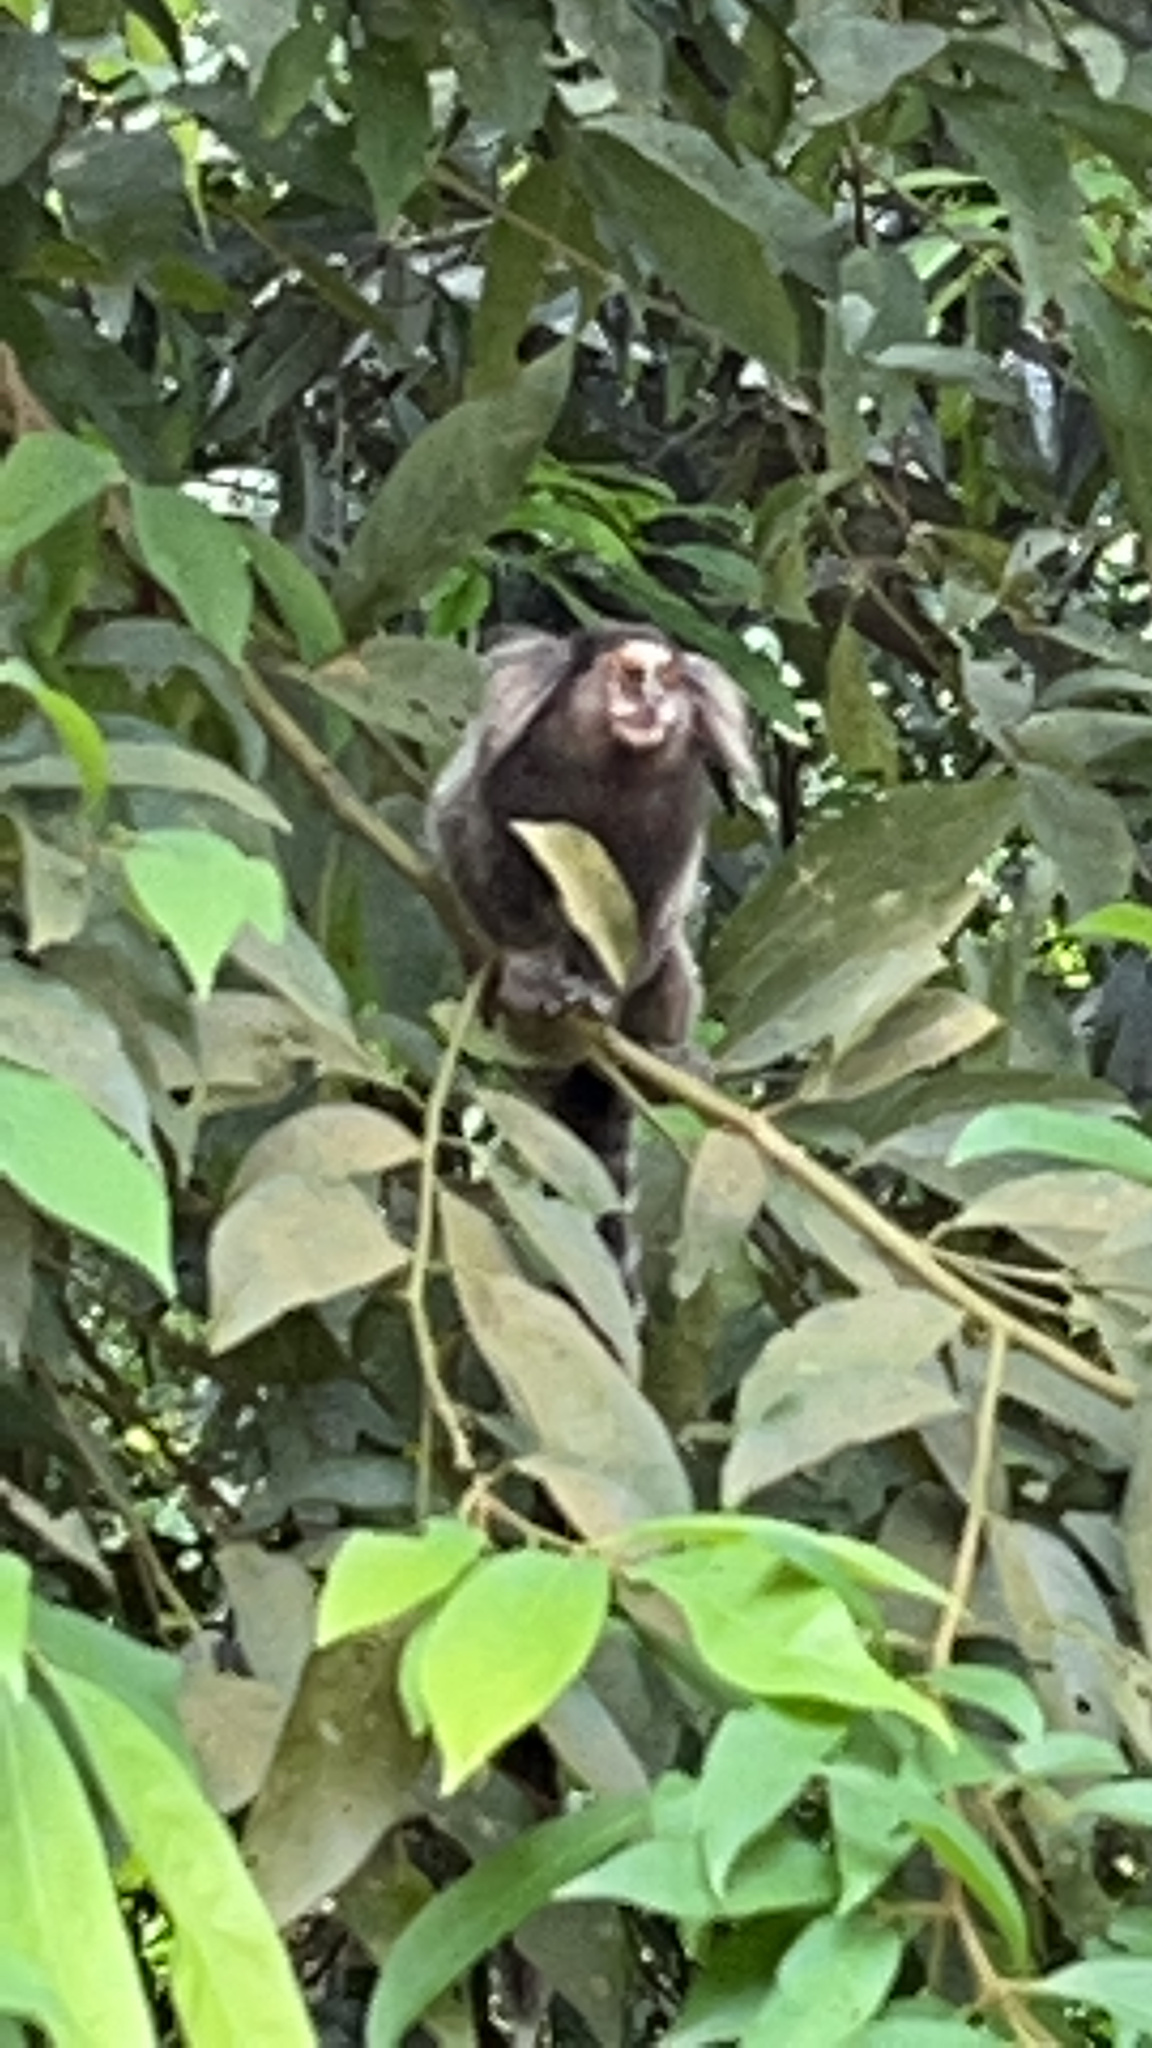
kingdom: Animalia
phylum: Chordata
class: Mammalia
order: Primates
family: Callitrichidae
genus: Callithrix
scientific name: Callithrix jacchus
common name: Common marmoset
